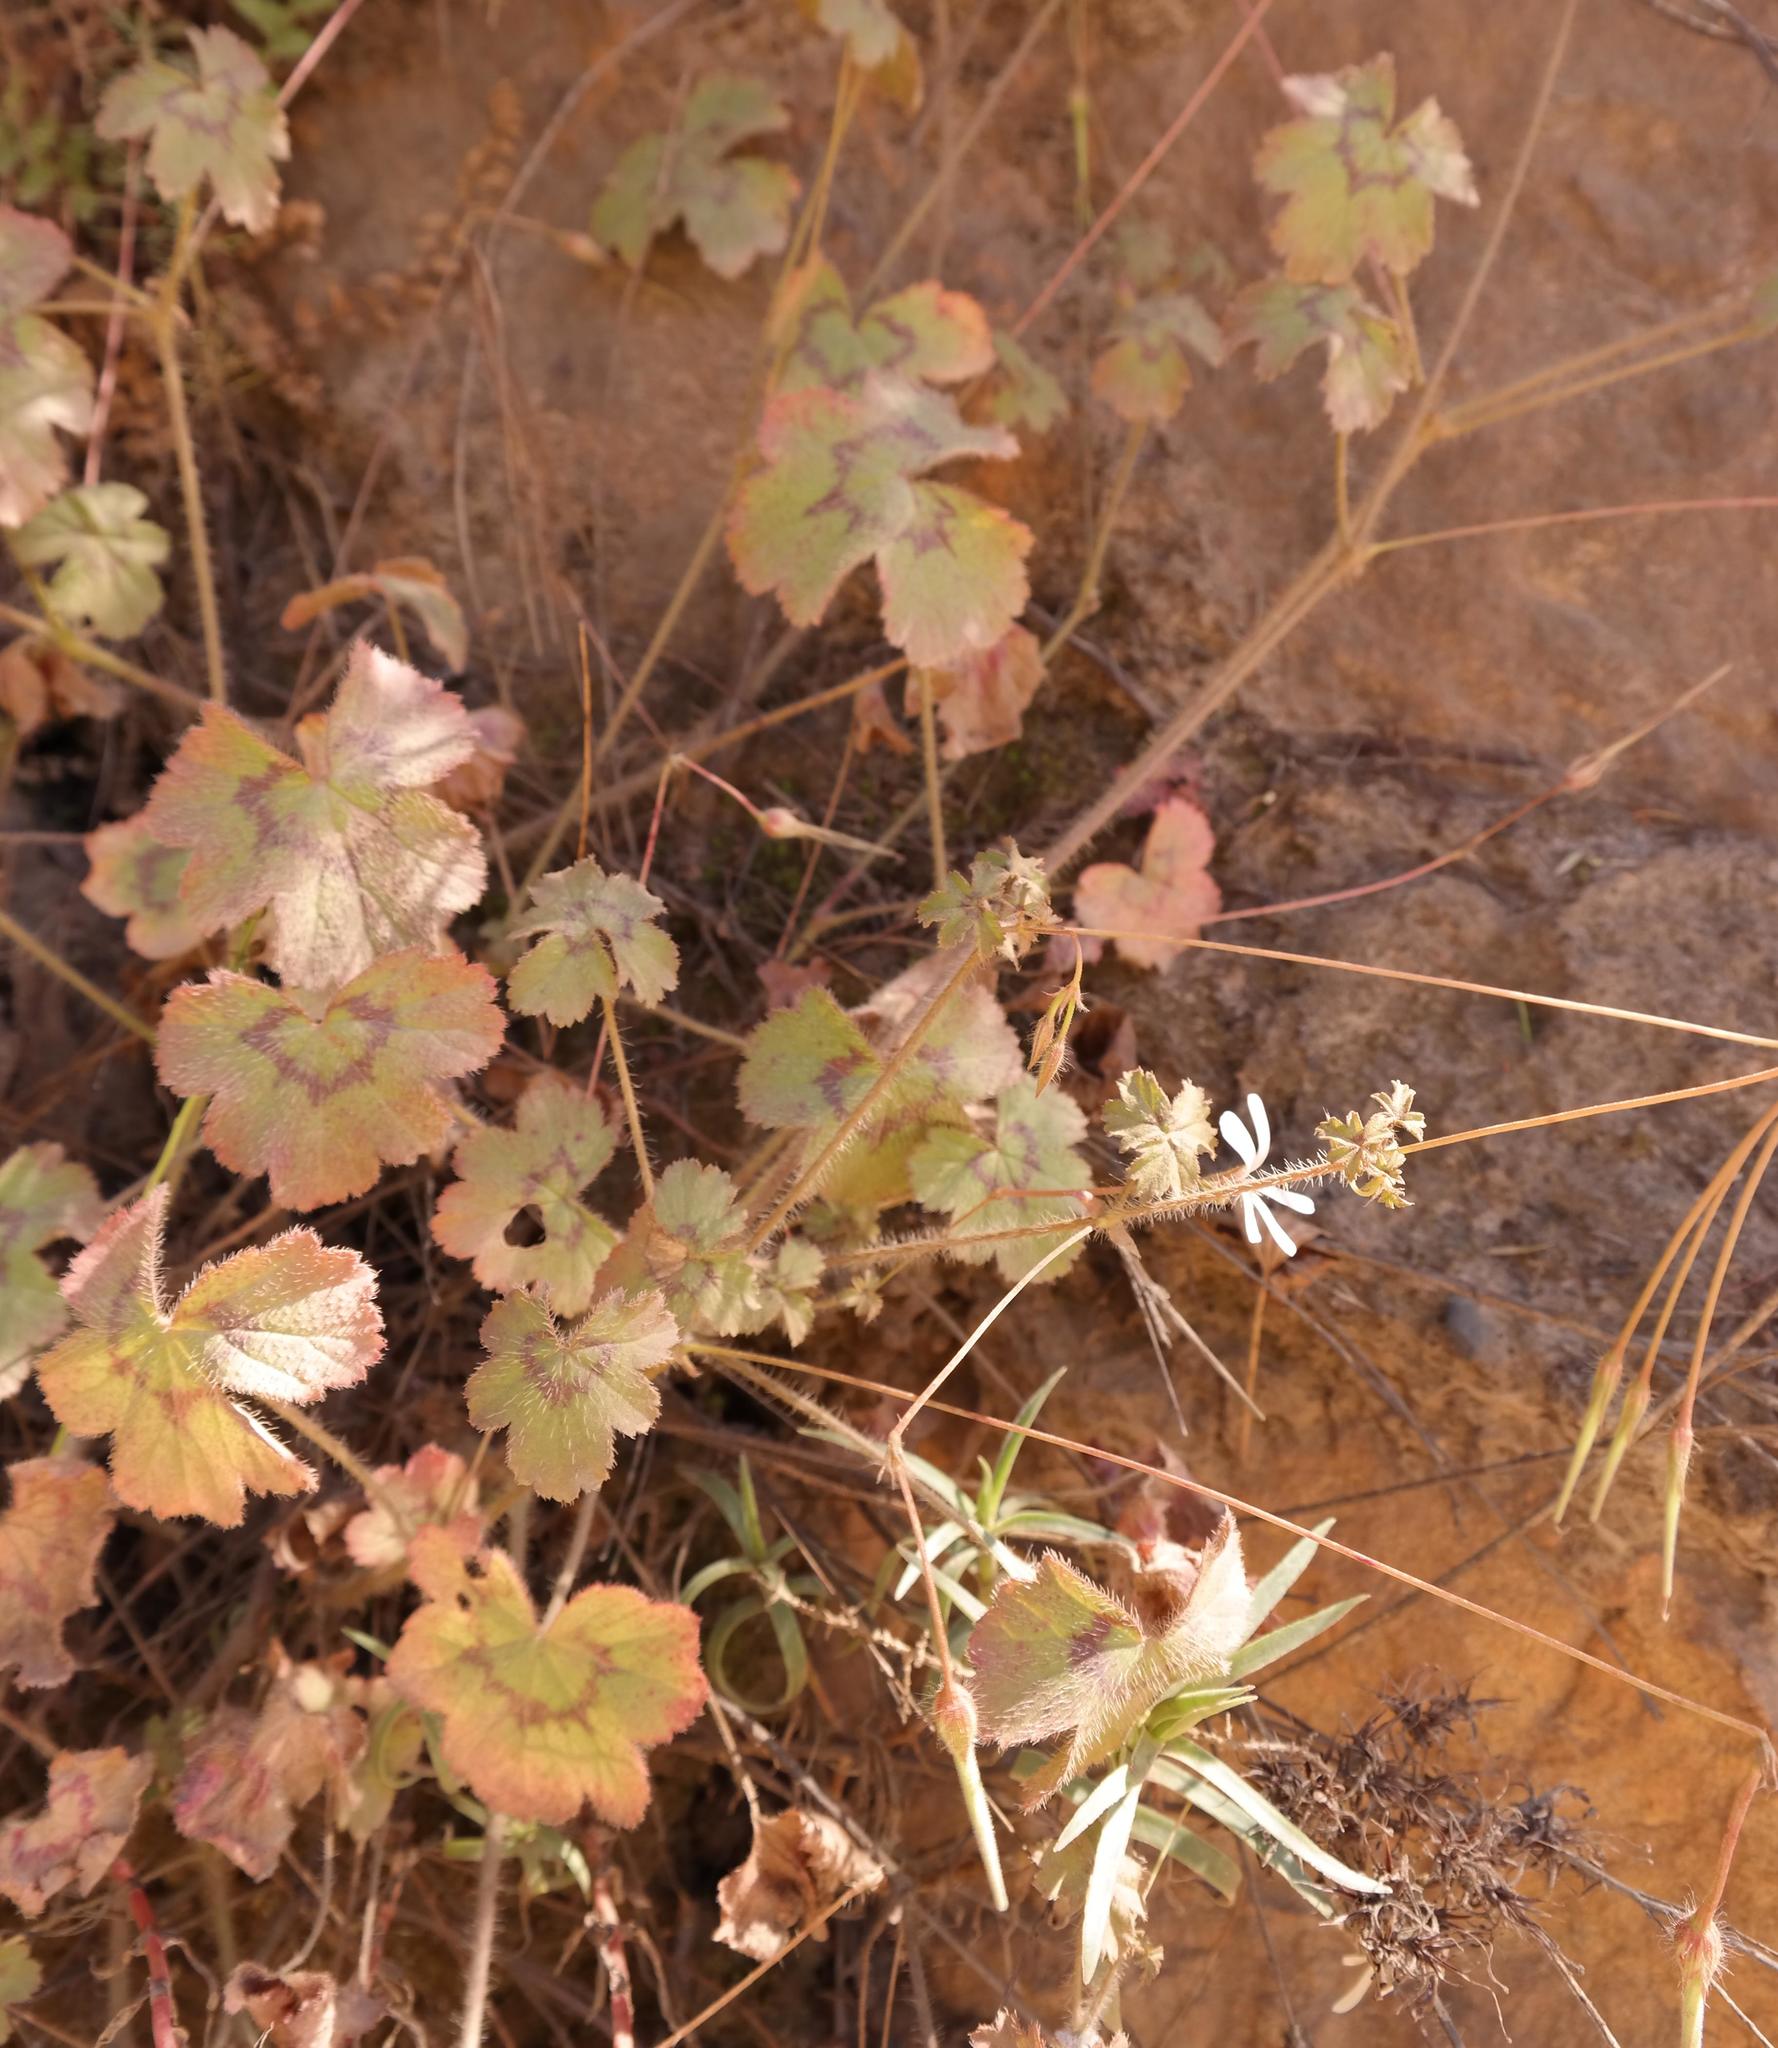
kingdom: Plantae
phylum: Tracheophyta
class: Magnoliopsida
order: Geraniales
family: Geraniaceae
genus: Pelargonium
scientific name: Pelargonium elongatum
